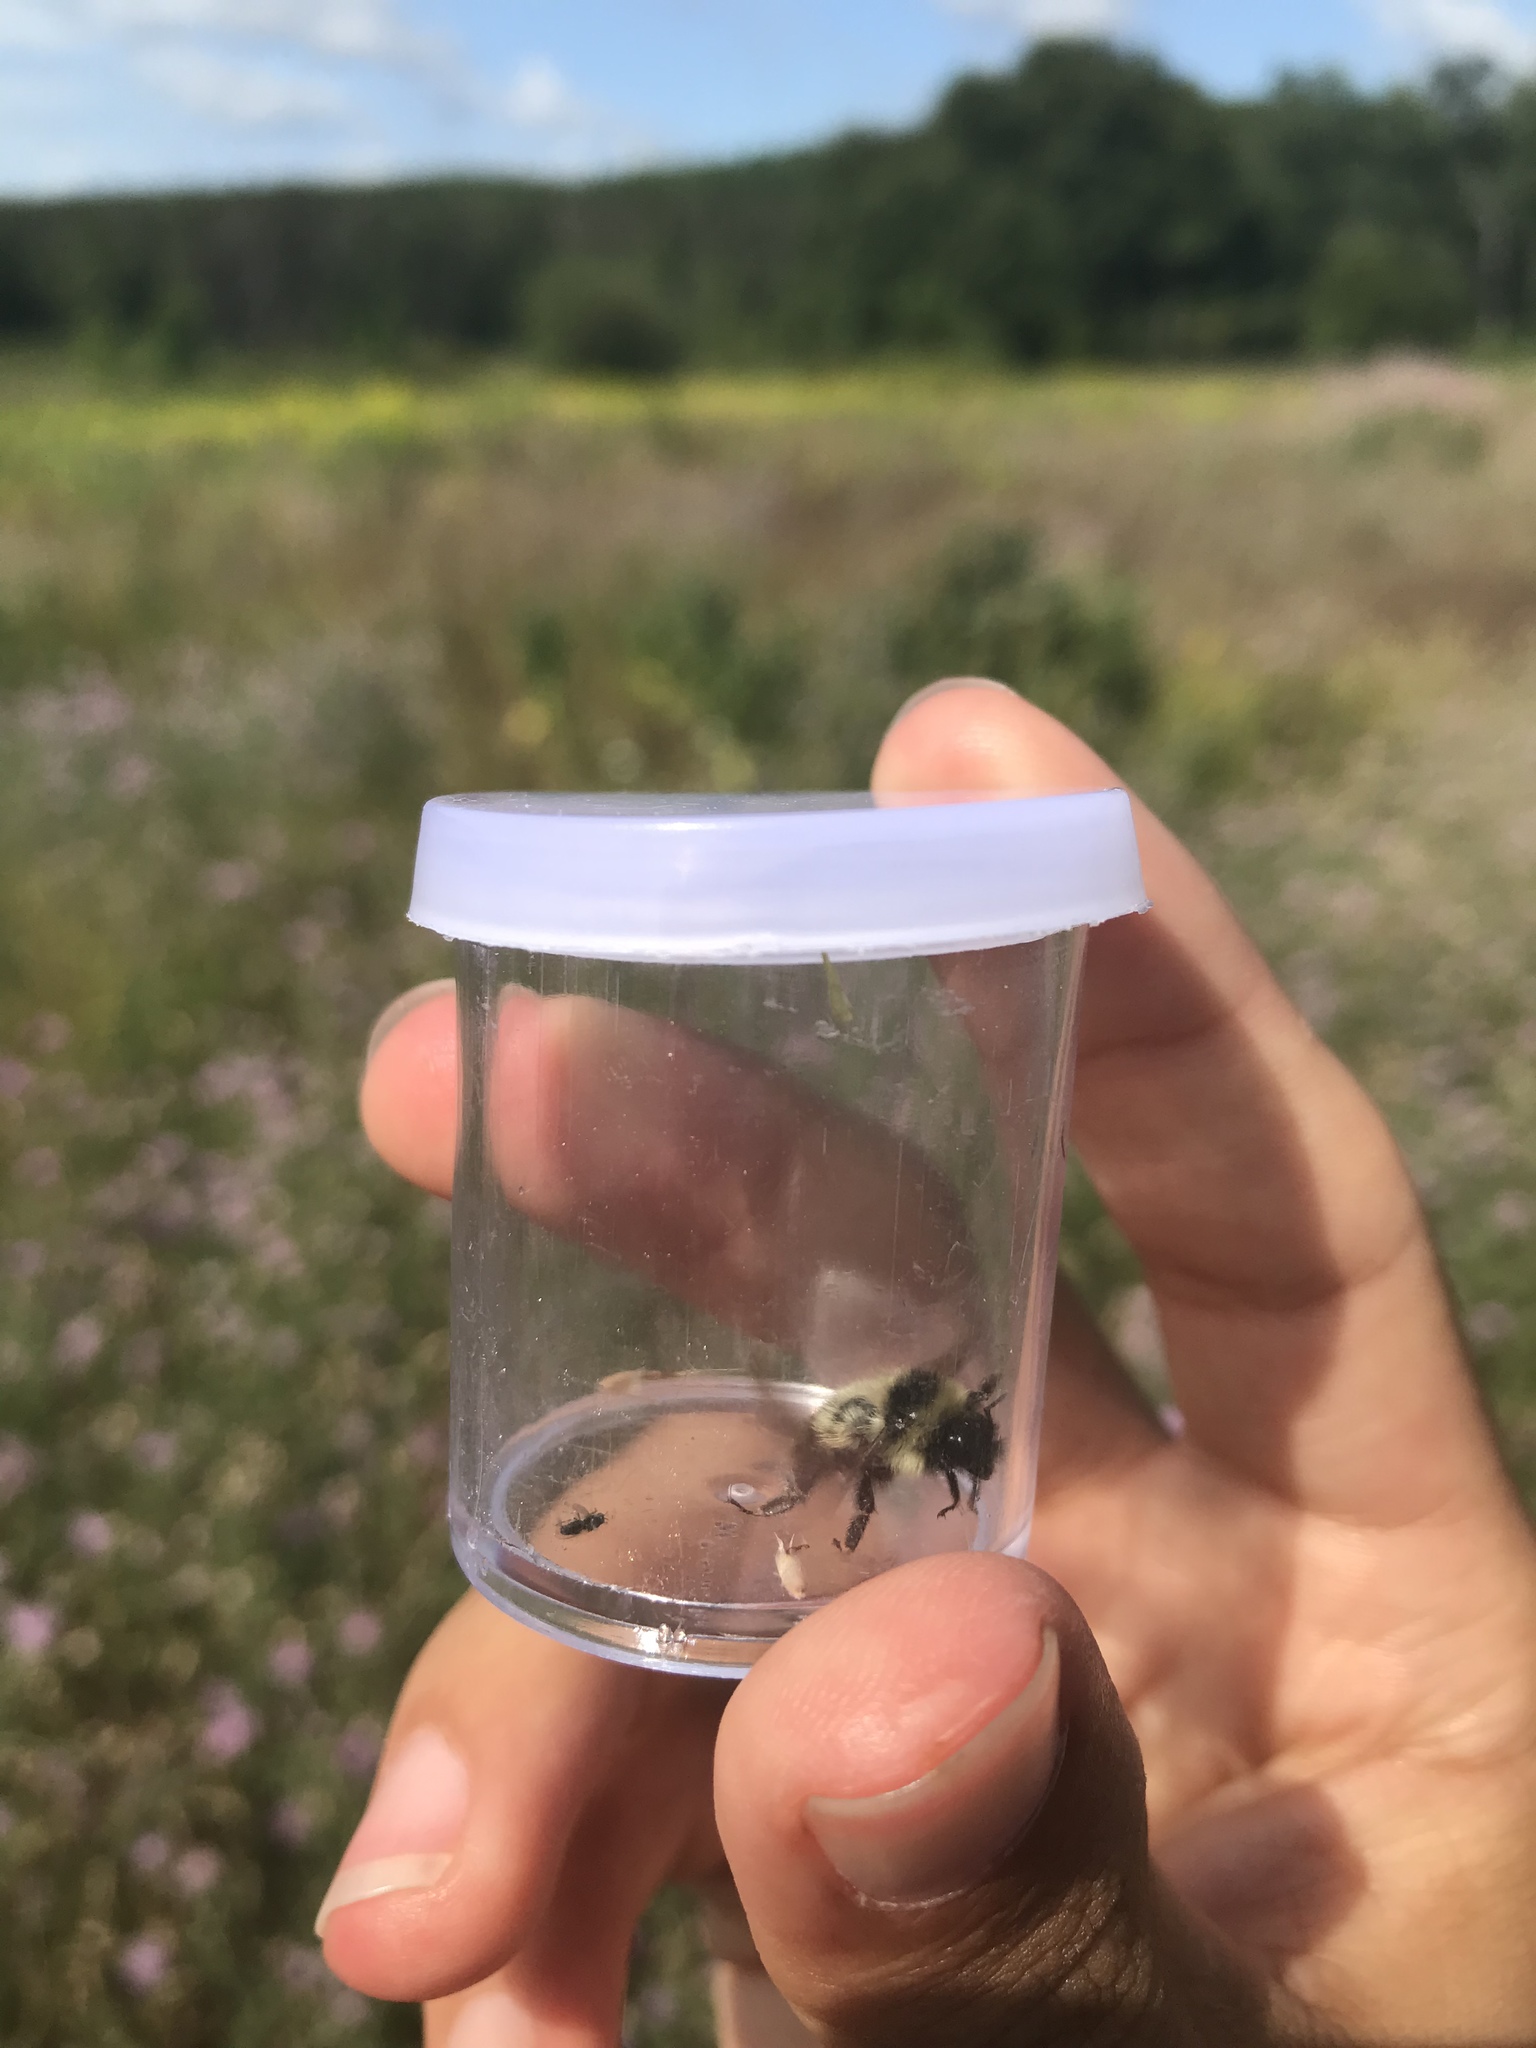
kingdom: Animalia
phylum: Arthropoda
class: Insecta
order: Hymenoptera
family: Apidae
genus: Bombus
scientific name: Bombus rufocinctus
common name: Red-belted bumble bee
